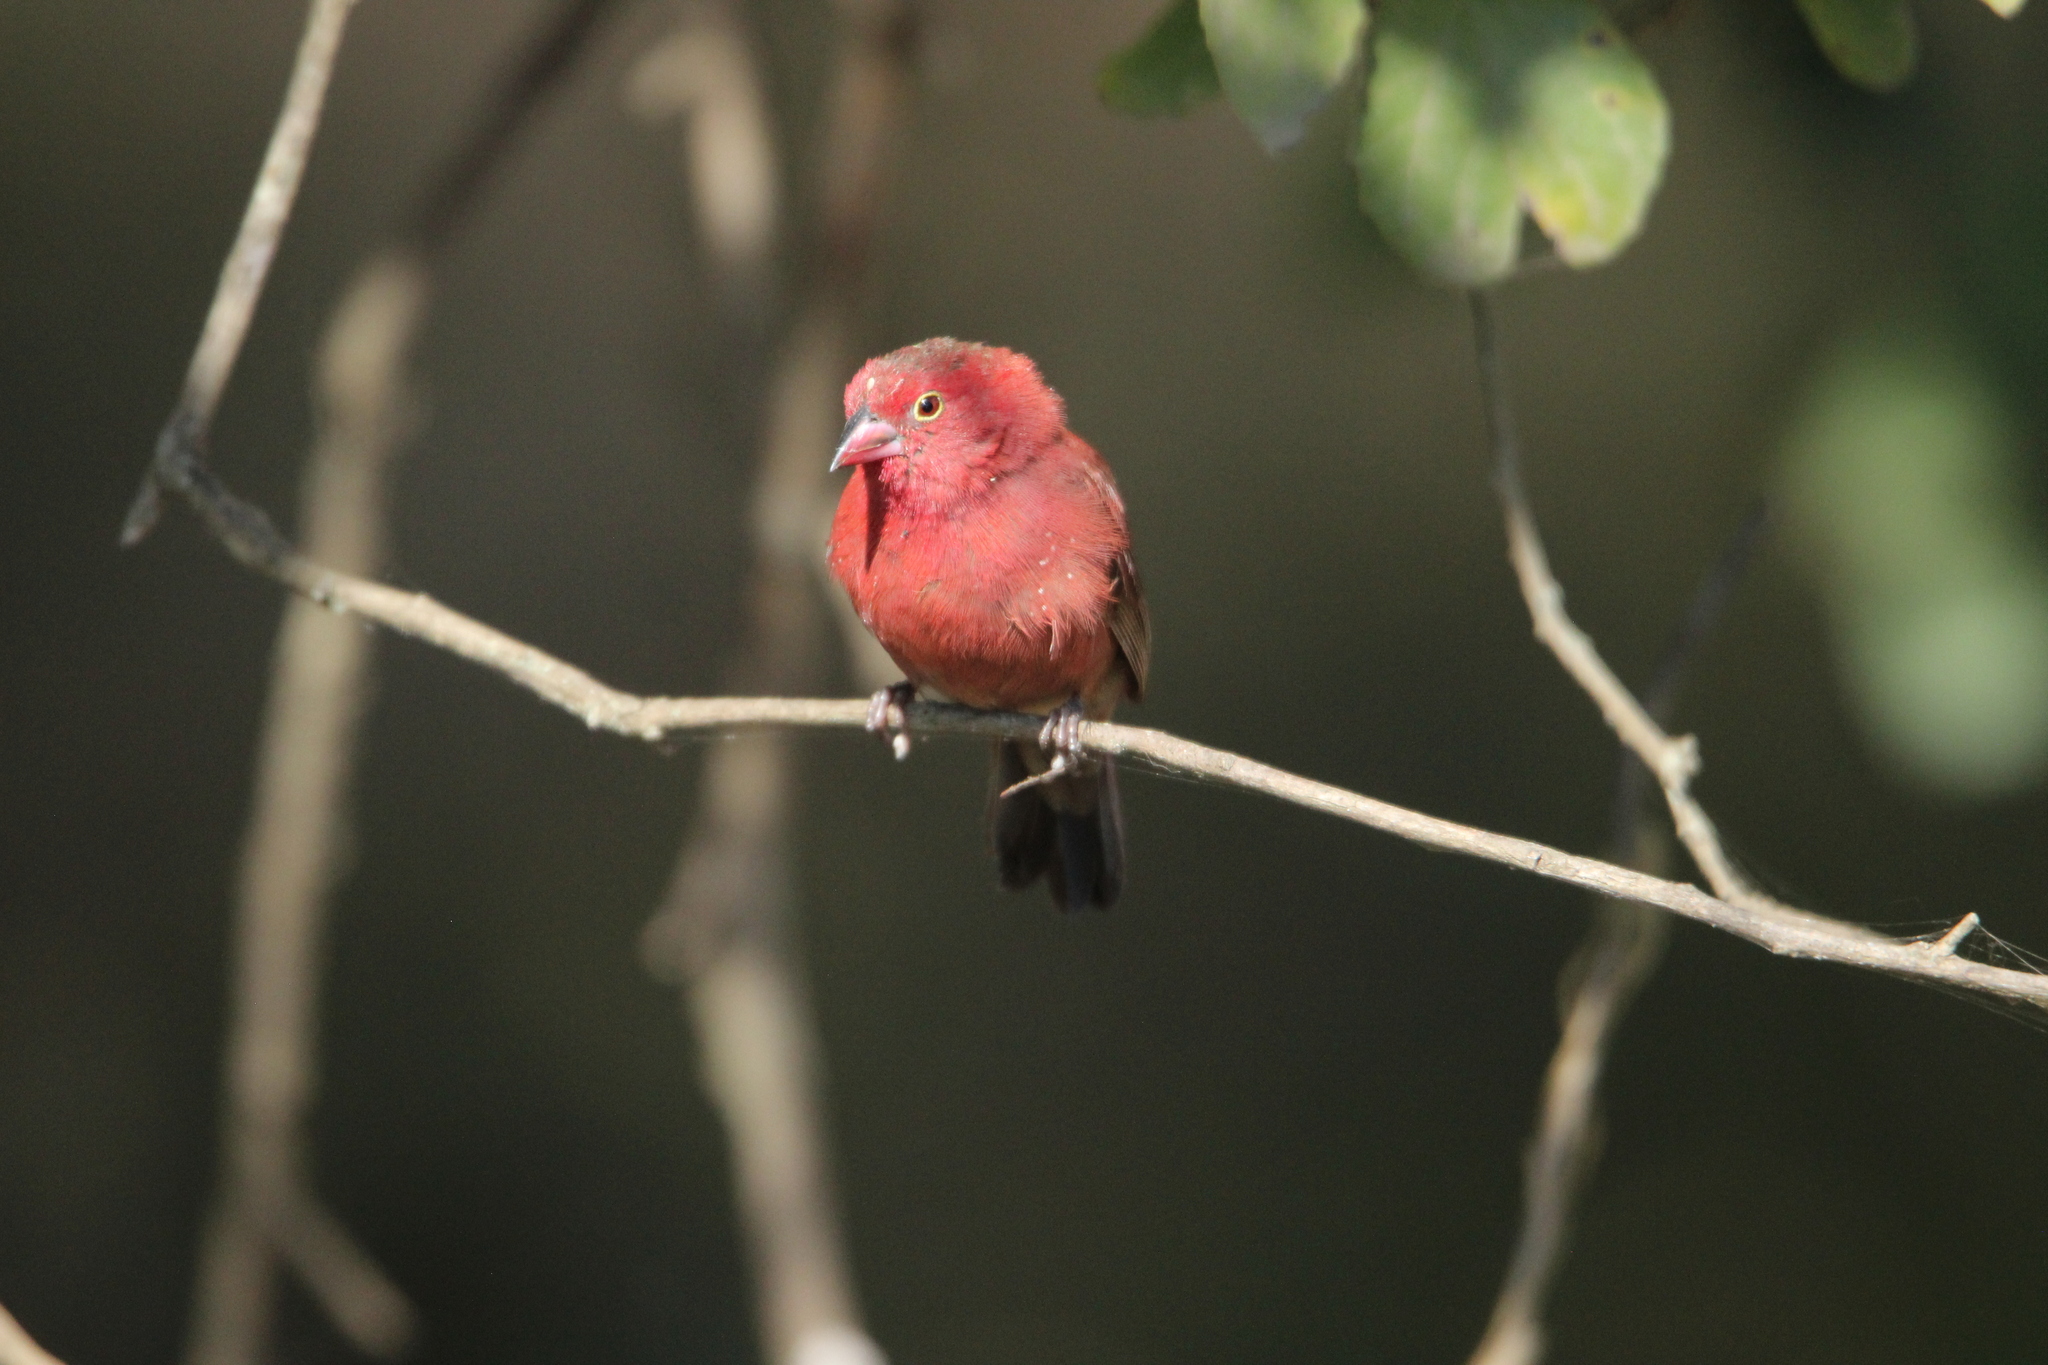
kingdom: Animalia
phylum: Chordata
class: Aves
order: Passeriformes
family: Estrildidae
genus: Lagonosticta
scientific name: Lagonosticta senegala
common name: Red-billed firefinch
